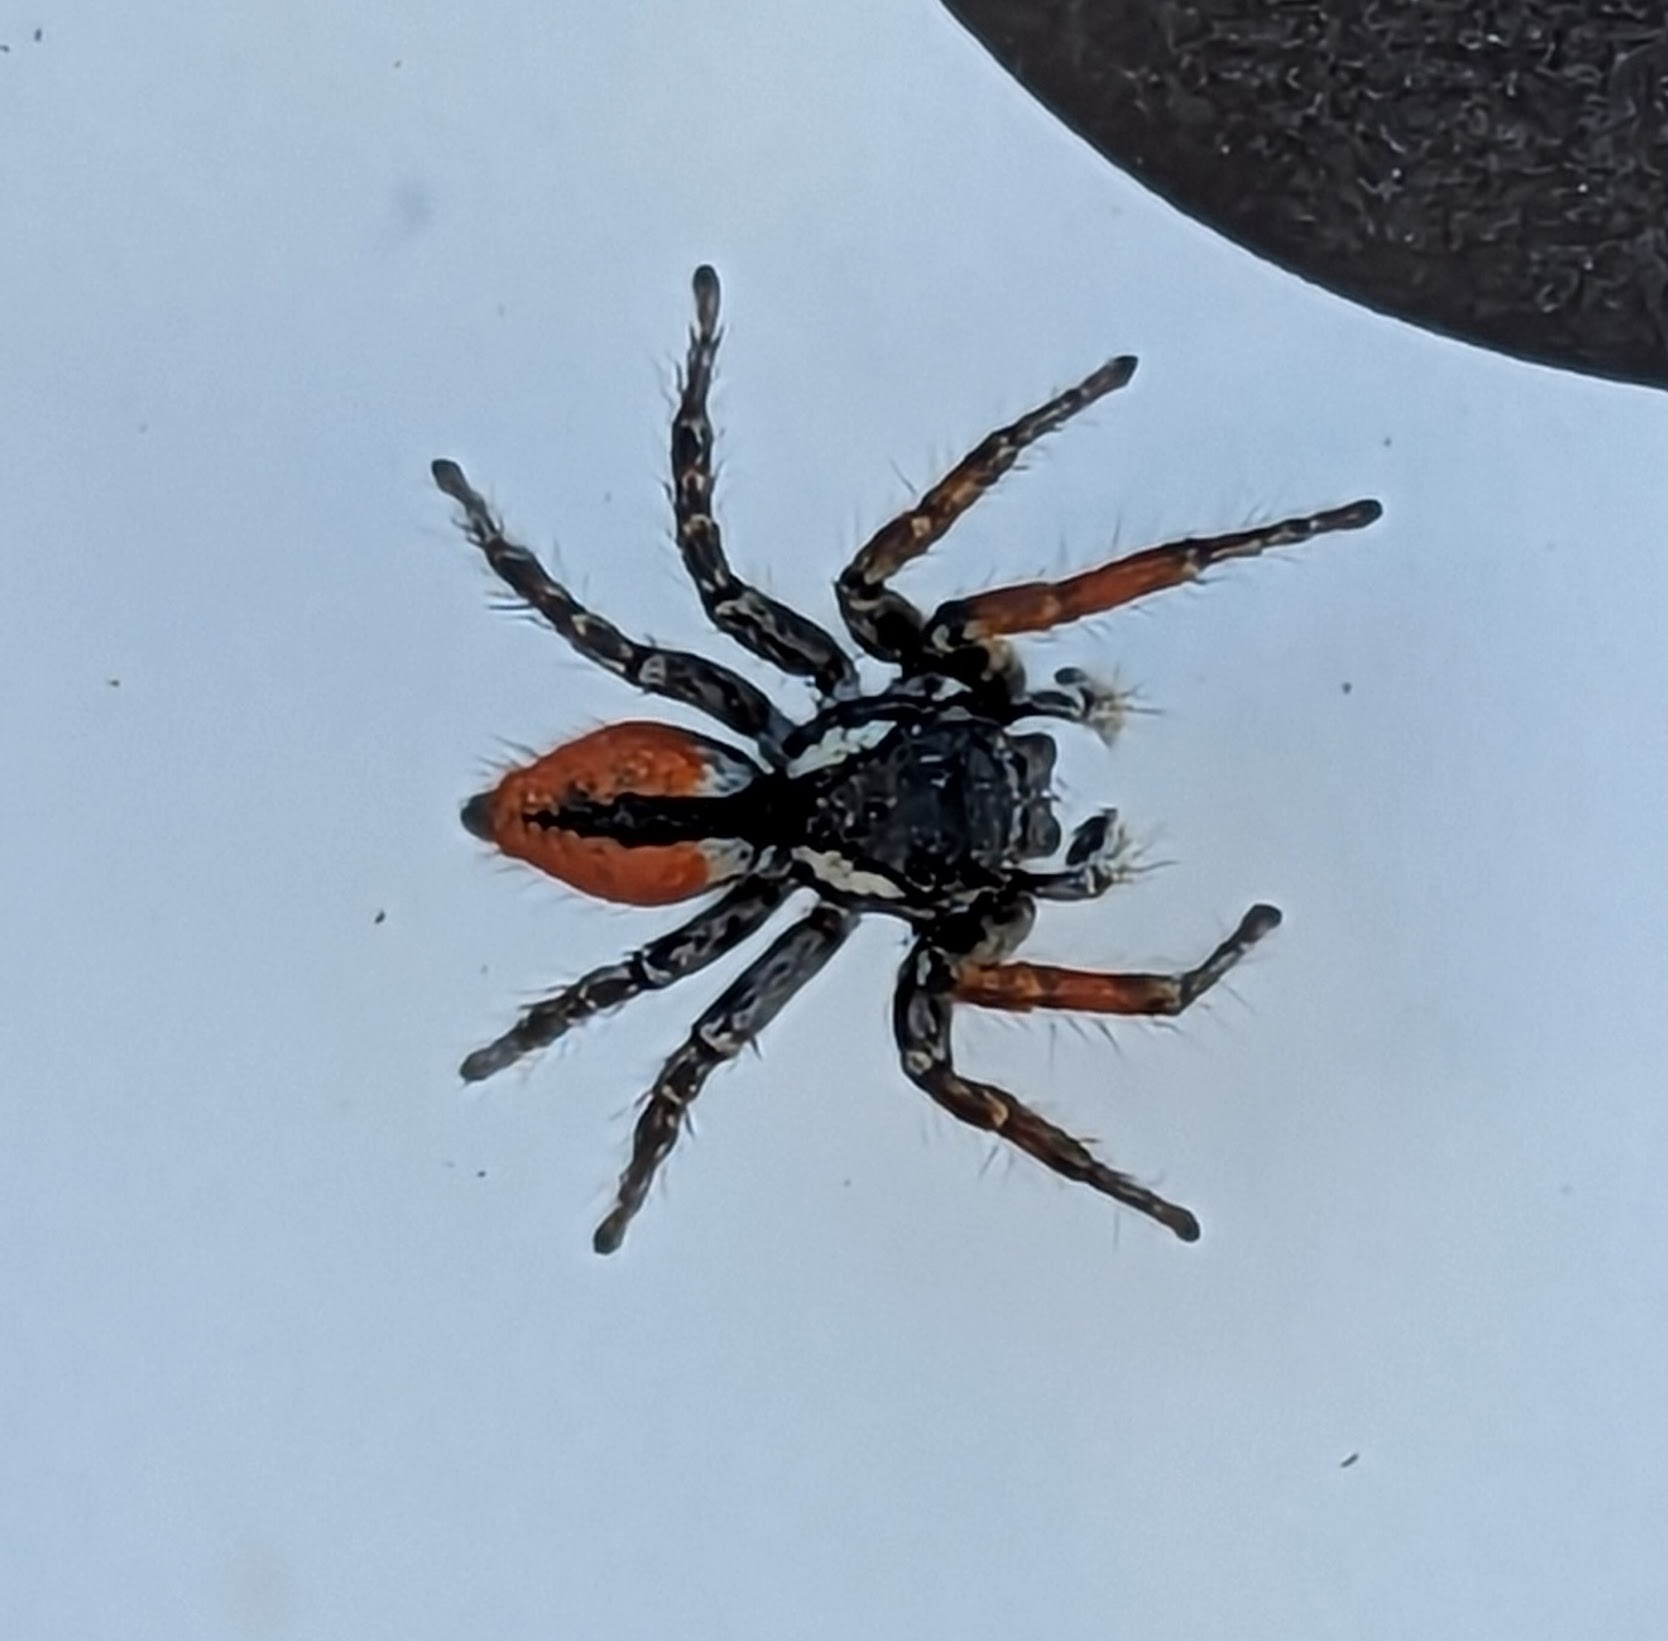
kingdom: Animalia
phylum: Arthropoda
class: Arachnida
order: Araneae
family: Salticidae
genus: Philaeus
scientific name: Philaeus chrysops
